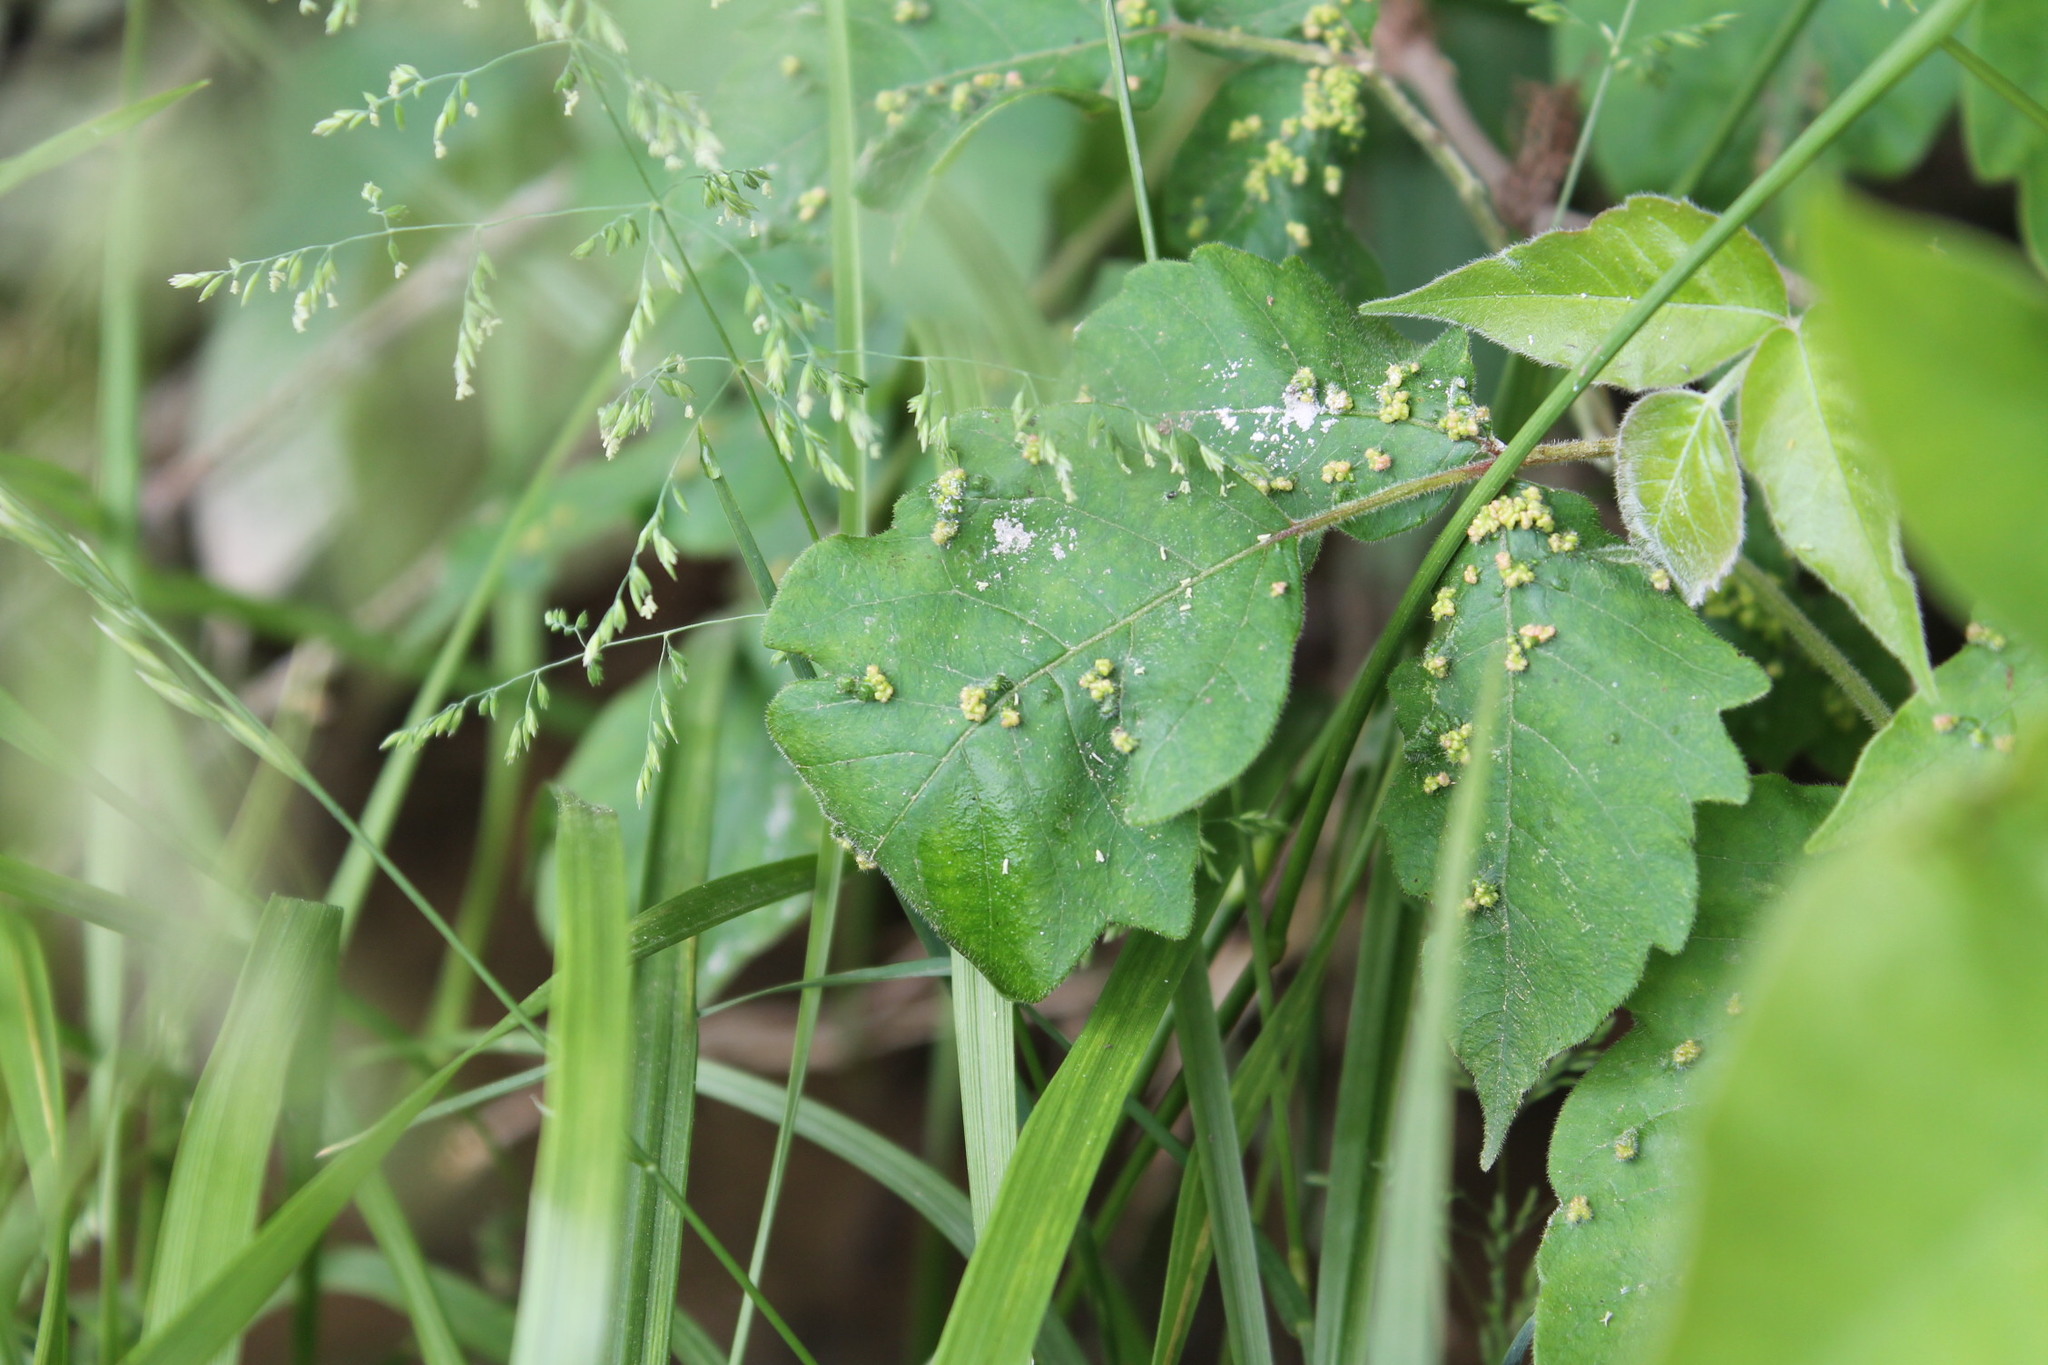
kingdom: Animalia
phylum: Arthropoda
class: Arachnida
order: Trombidiformes
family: Eriophyidae
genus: Aculops
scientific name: Aculops
